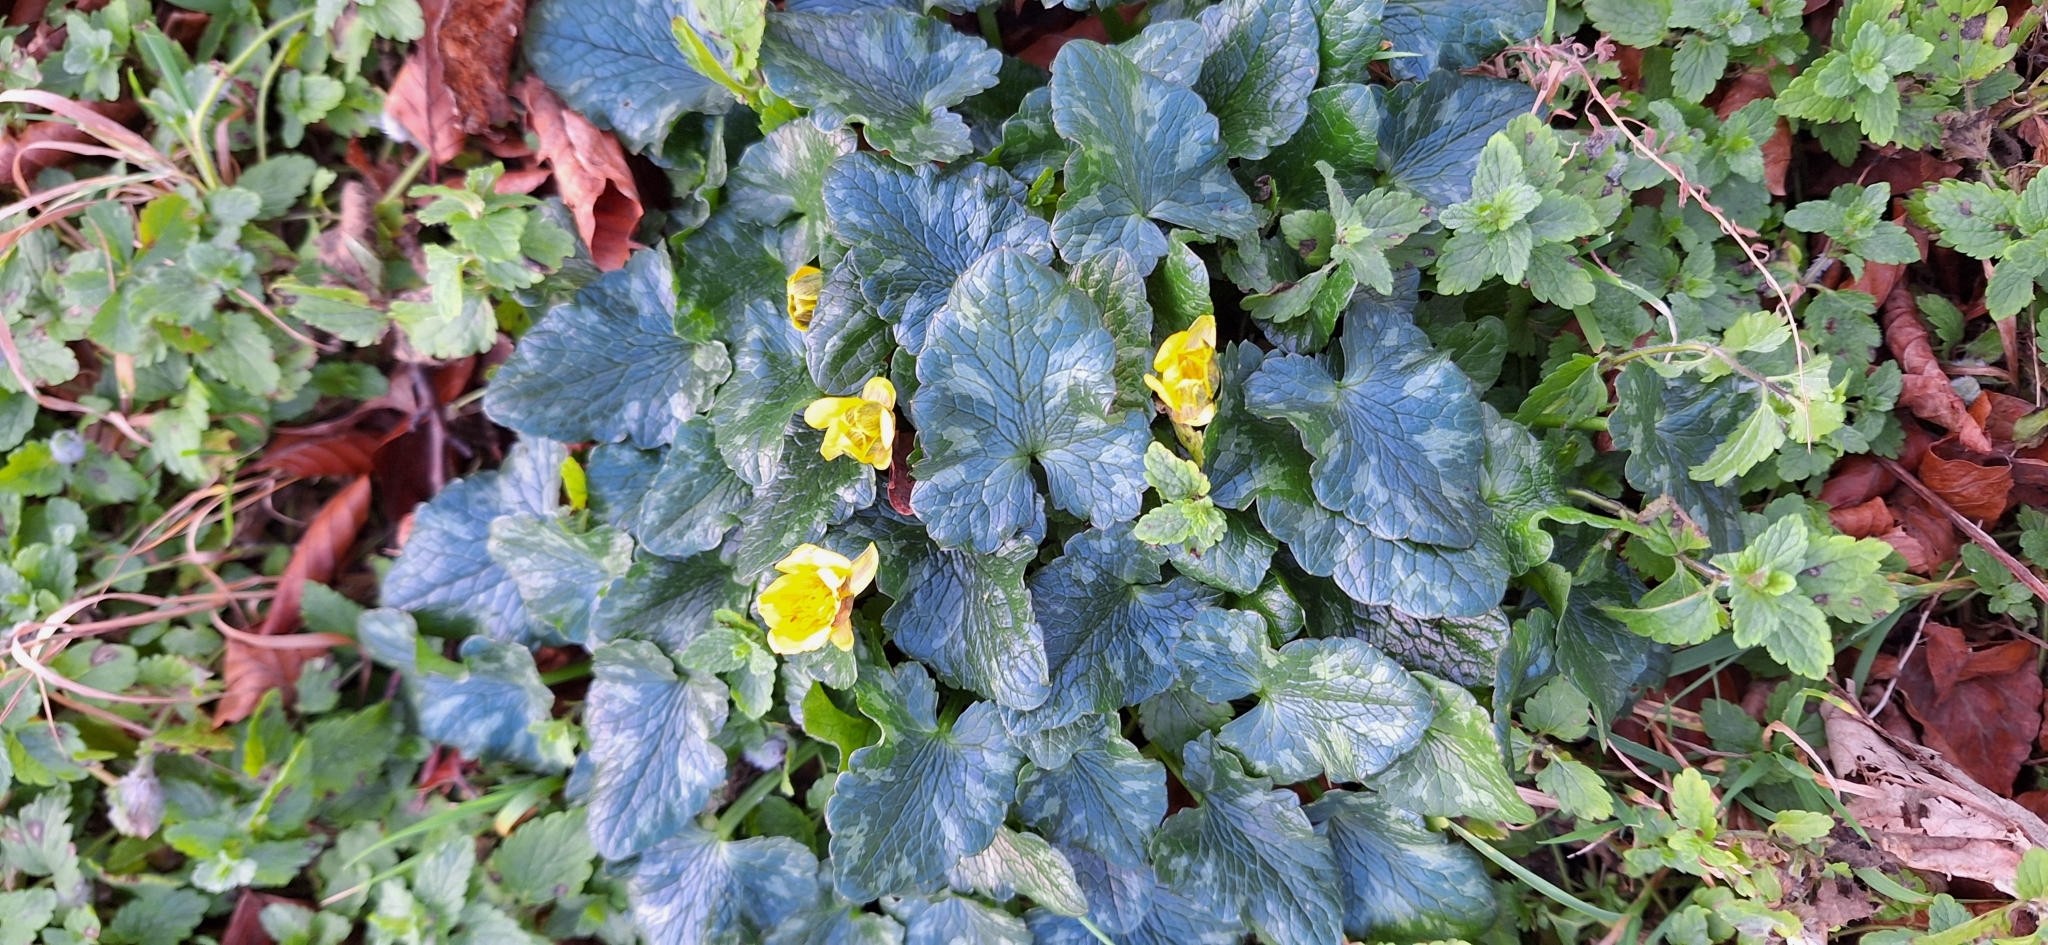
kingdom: Plantae
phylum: Tracheophyta
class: Magnoliopsida
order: Ranunculales
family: Ranunculaceae
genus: Ficaria
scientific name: Ficaria verna
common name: Lesser celandine
